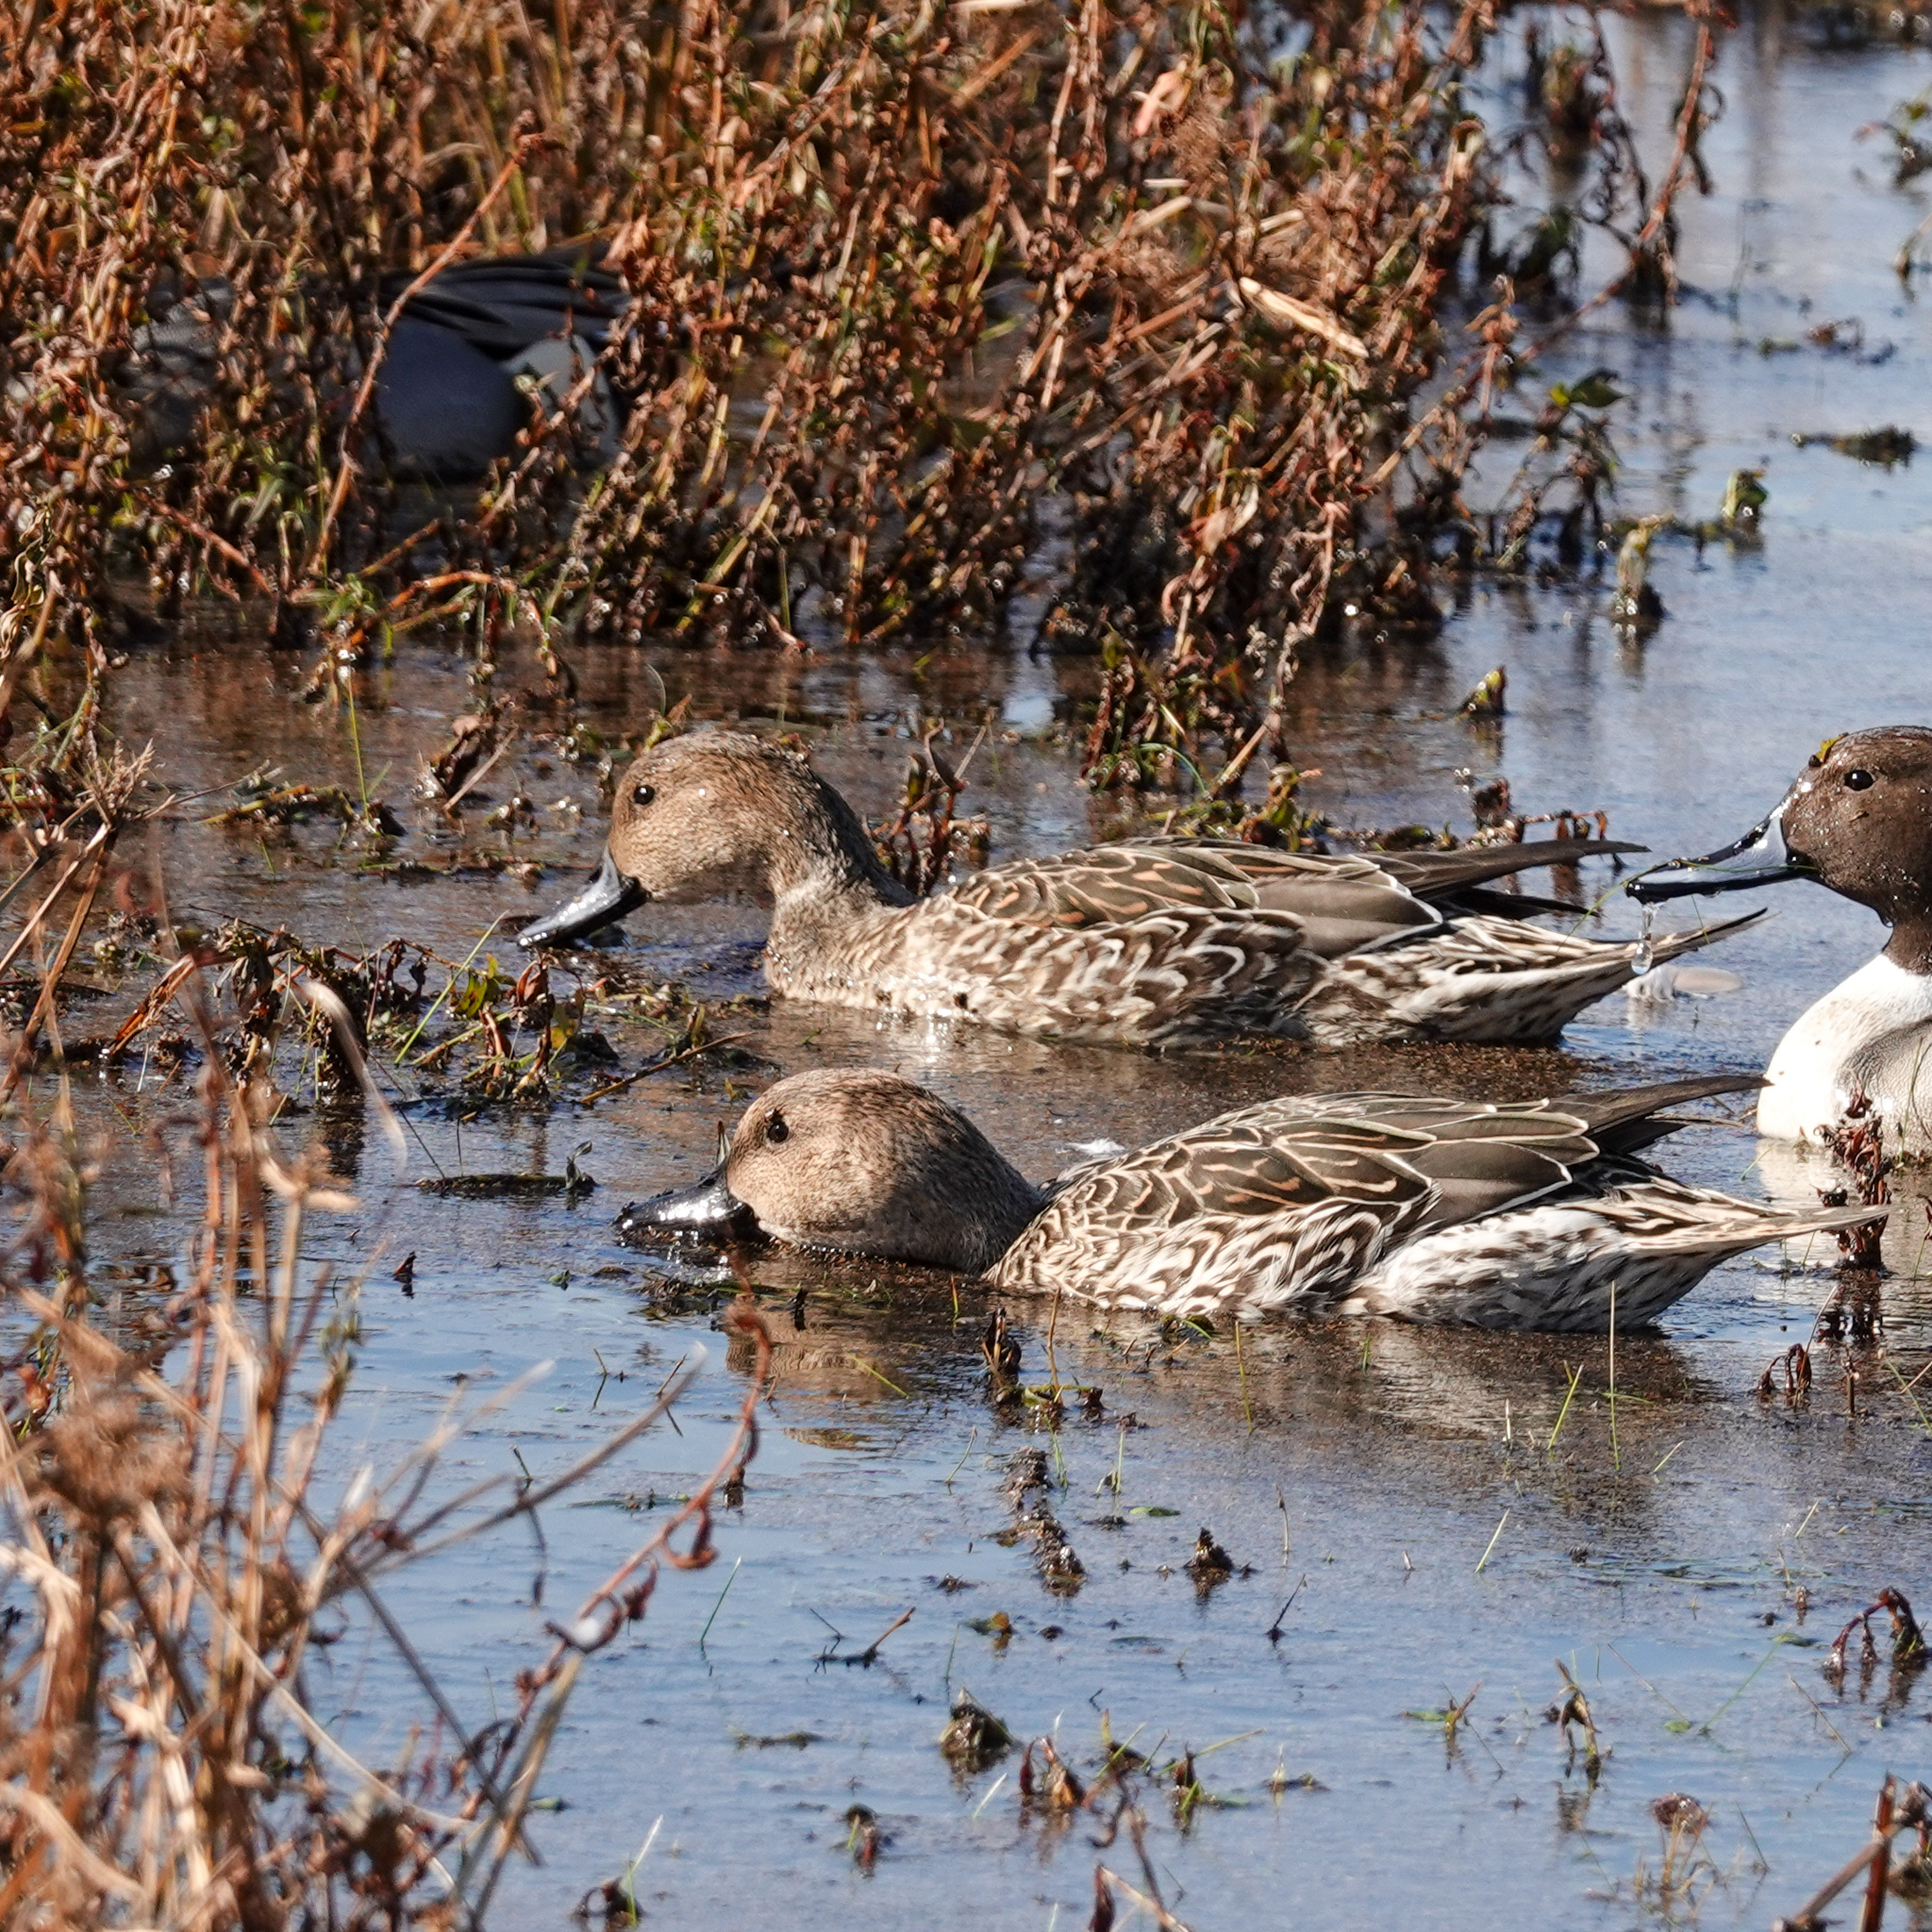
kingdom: Animalia
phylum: Chordata
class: Aves
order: Anseriformes
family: Anatidae
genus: Anas
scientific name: Anas acuta
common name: Northern pintail
